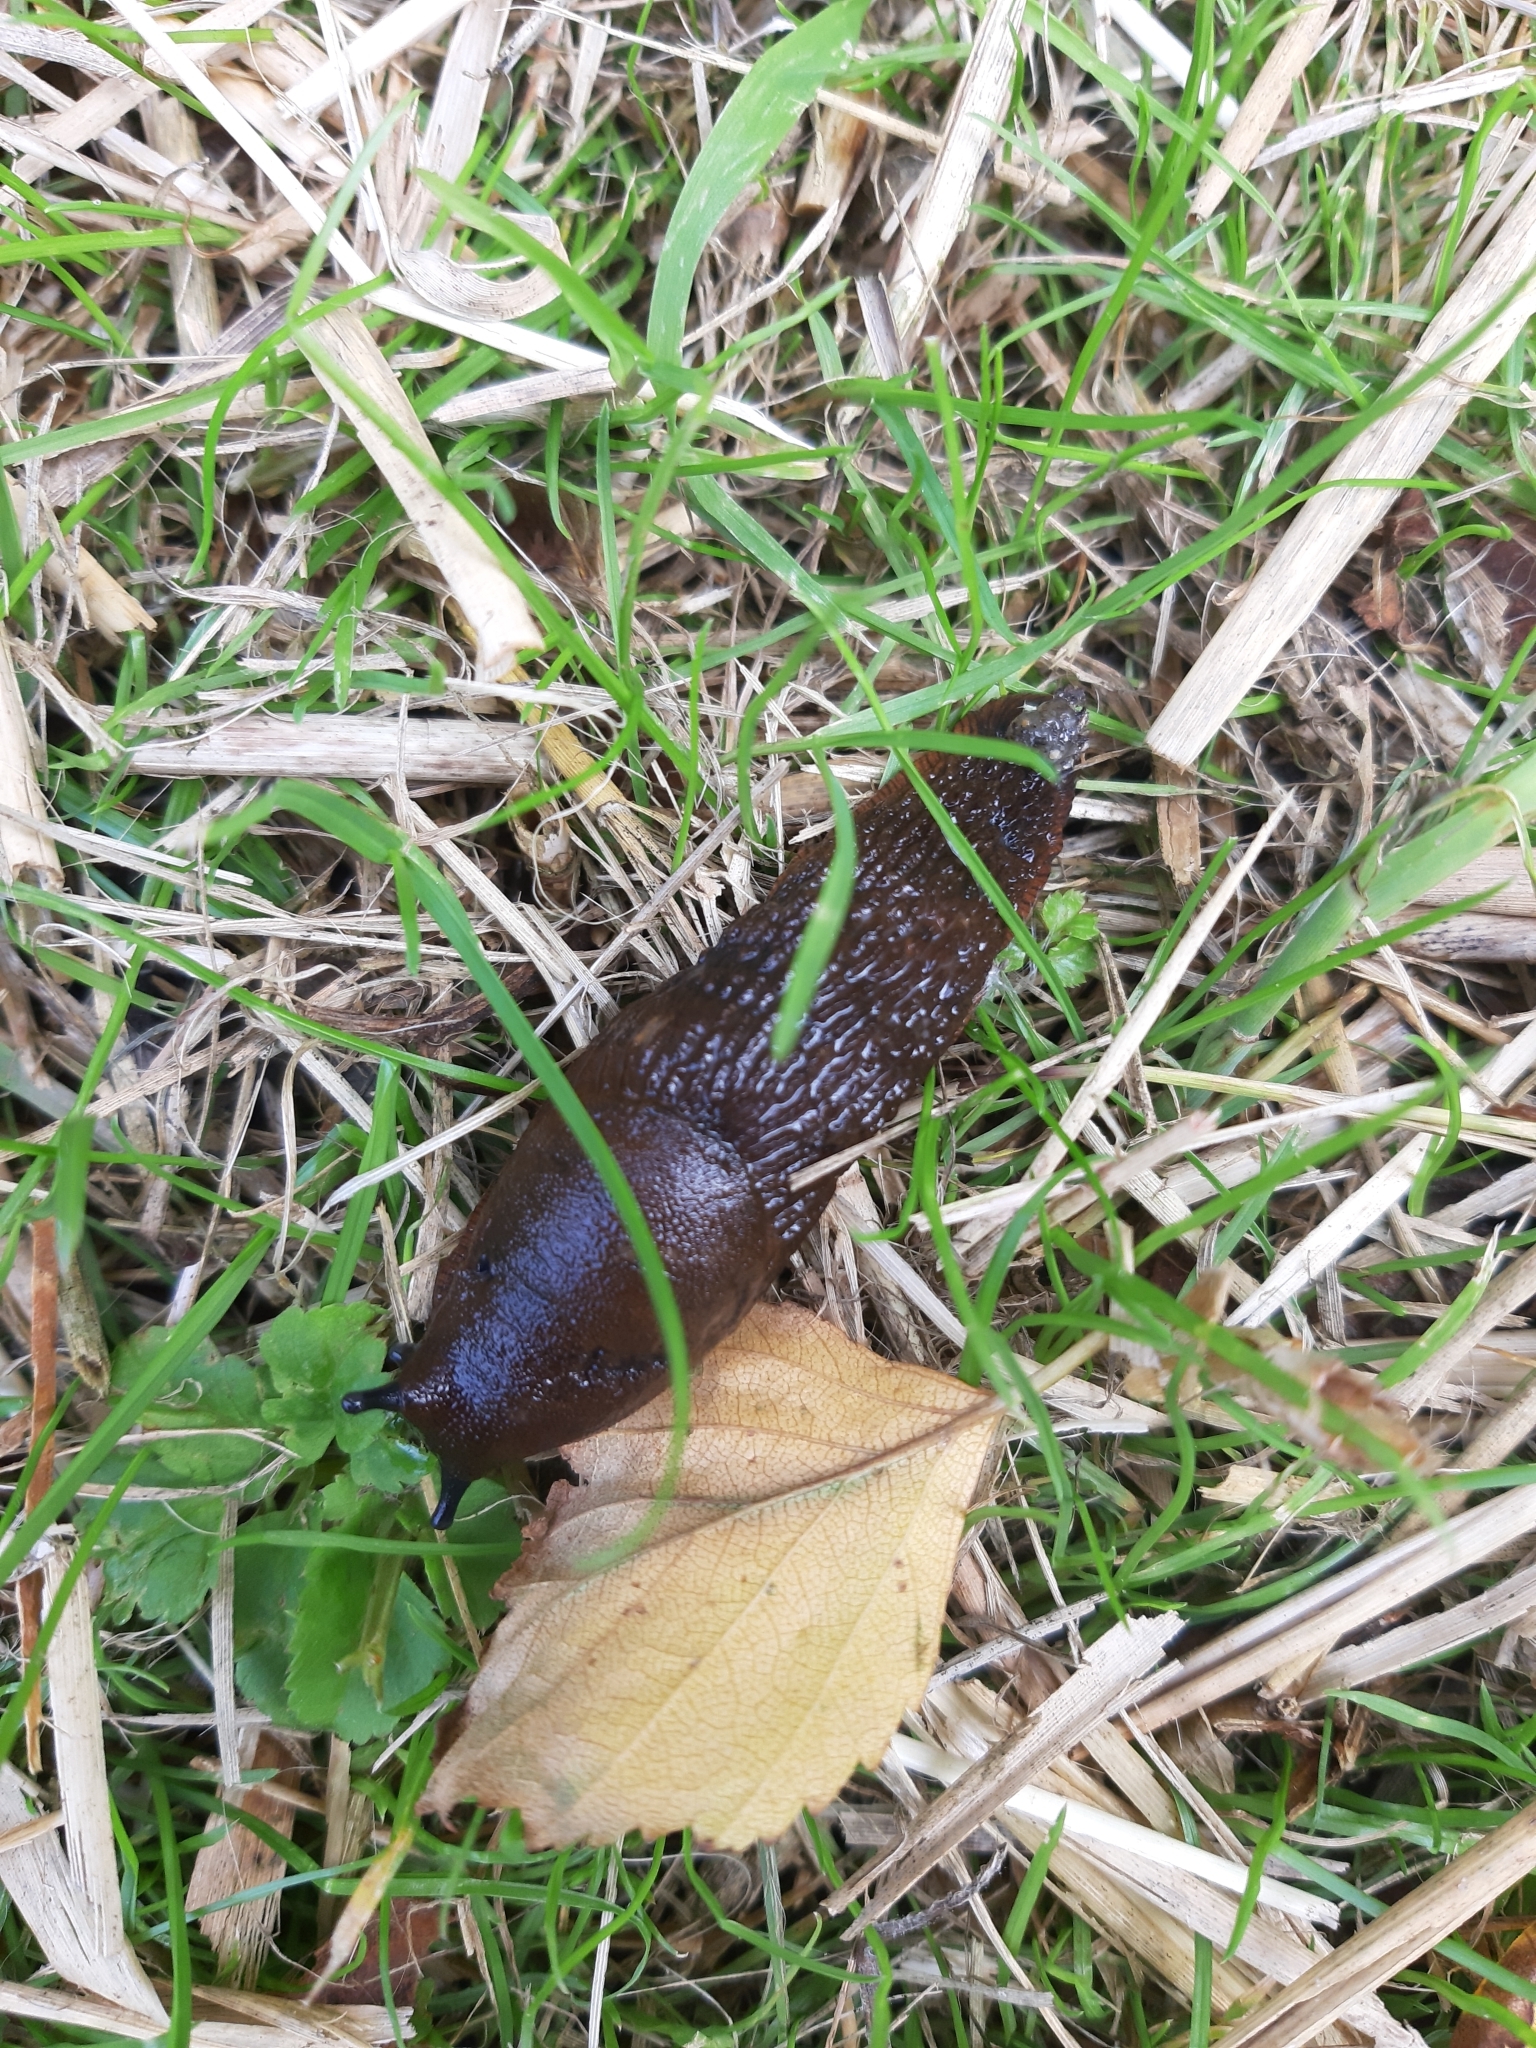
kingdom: Animalia
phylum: Mollusca
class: Gastropoda
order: Stylommatophora
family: Arionidae
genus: Arion
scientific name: Arion ater
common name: Black arion
